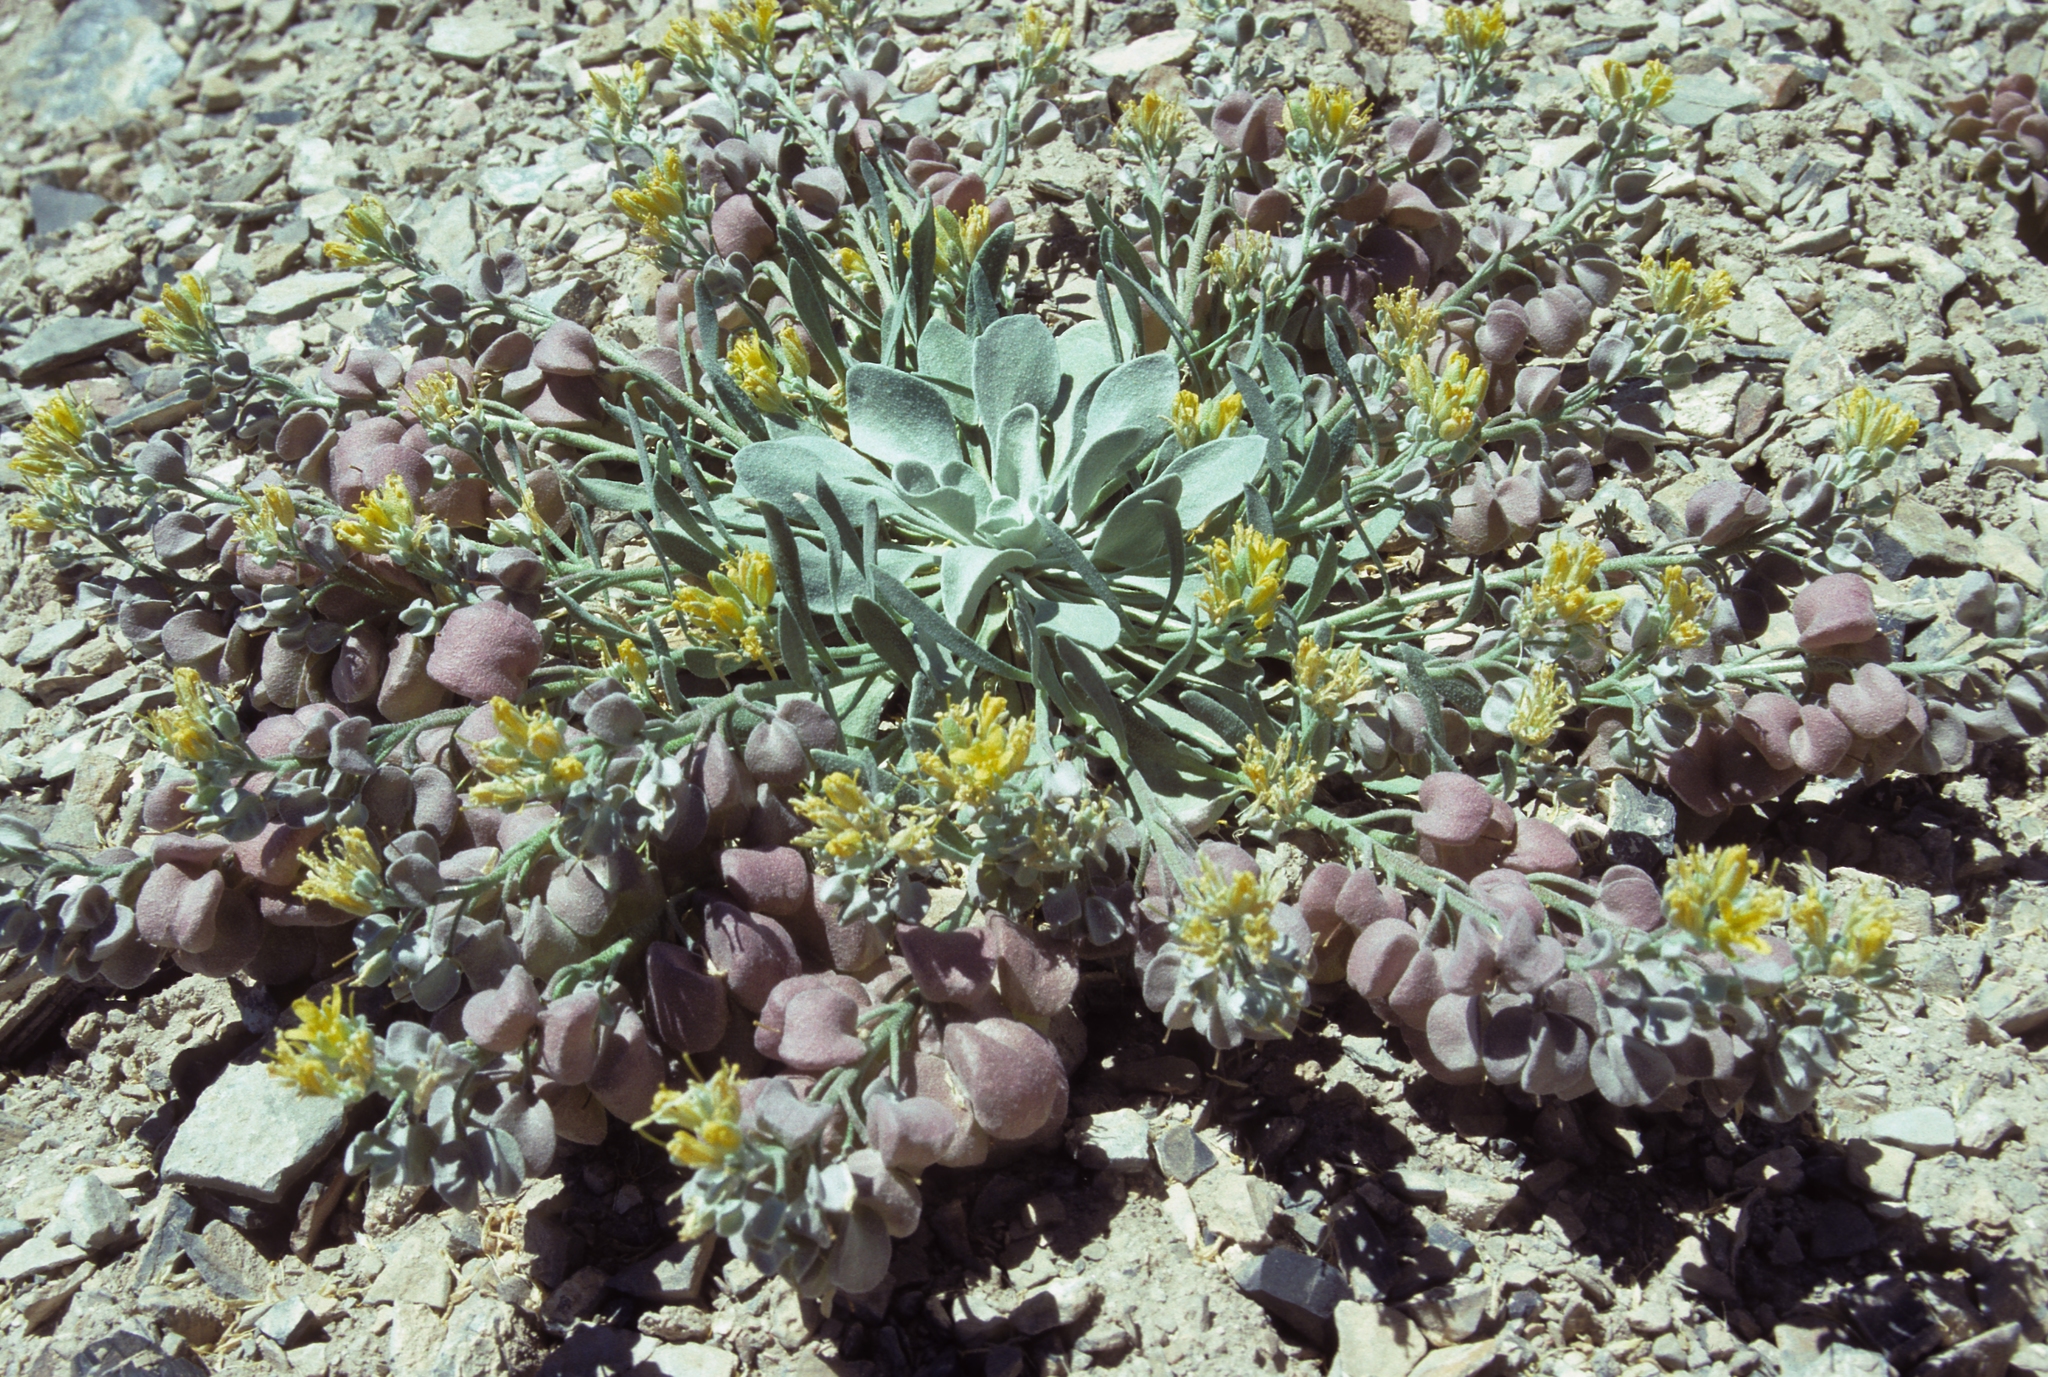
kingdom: Plantae
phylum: Tracheophyta
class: Magnoliopsida
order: Brassicales
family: Brassicaceae
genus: Physaria
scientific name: Physaria chambersii
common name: Chamber's twinpod
